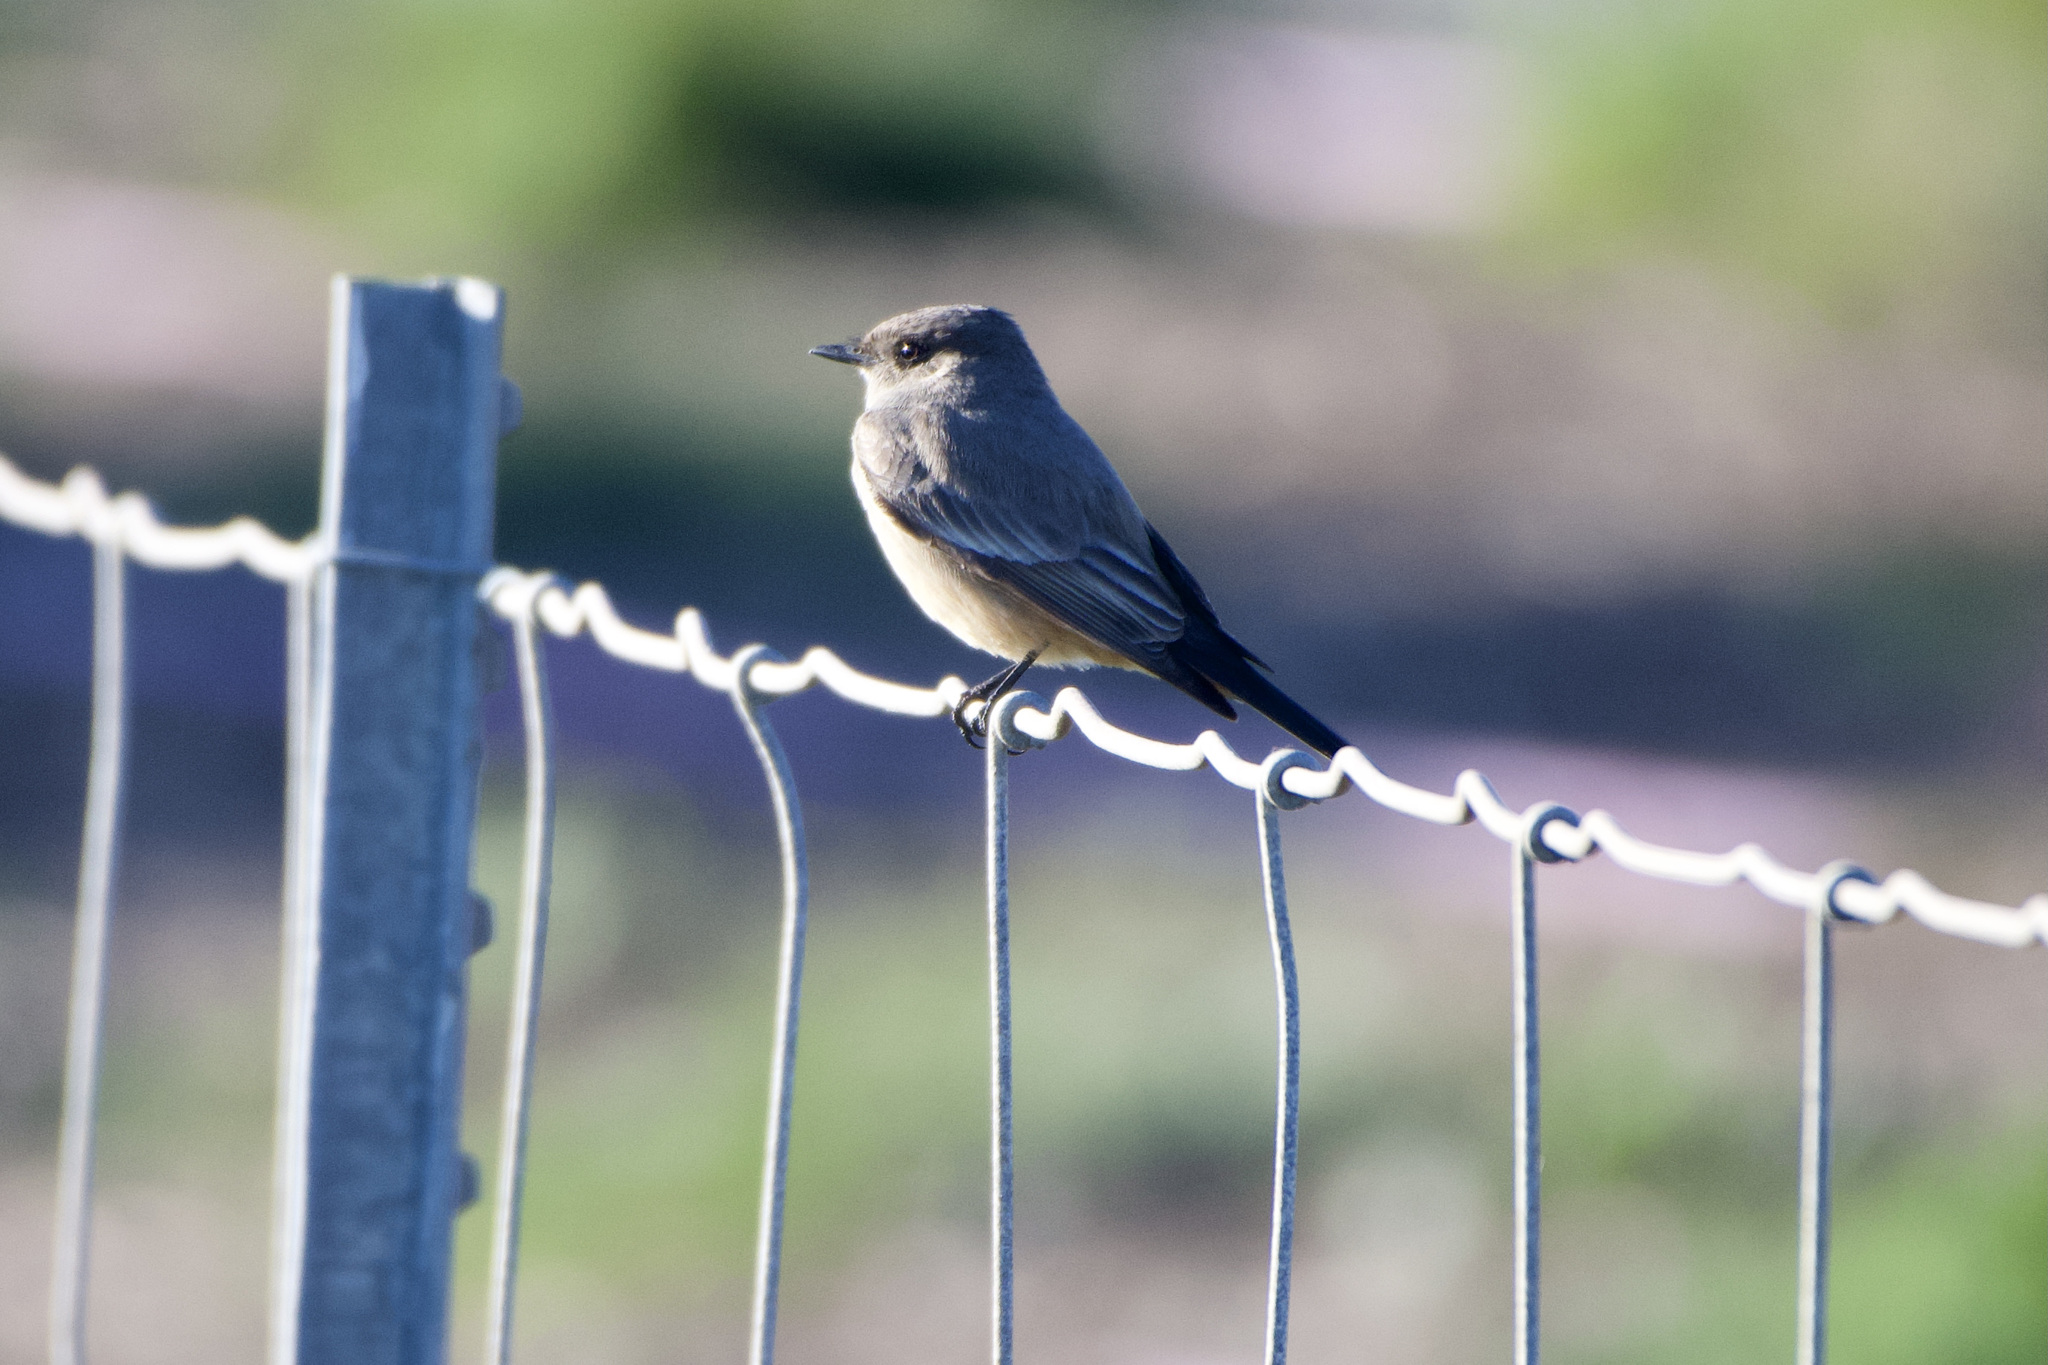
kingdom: Animalia
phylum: Chordata
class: Aves
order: Passeriformes
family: Tyrannidae
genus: Sayornis
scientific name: Sayornis saya
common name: Say's phoebe
